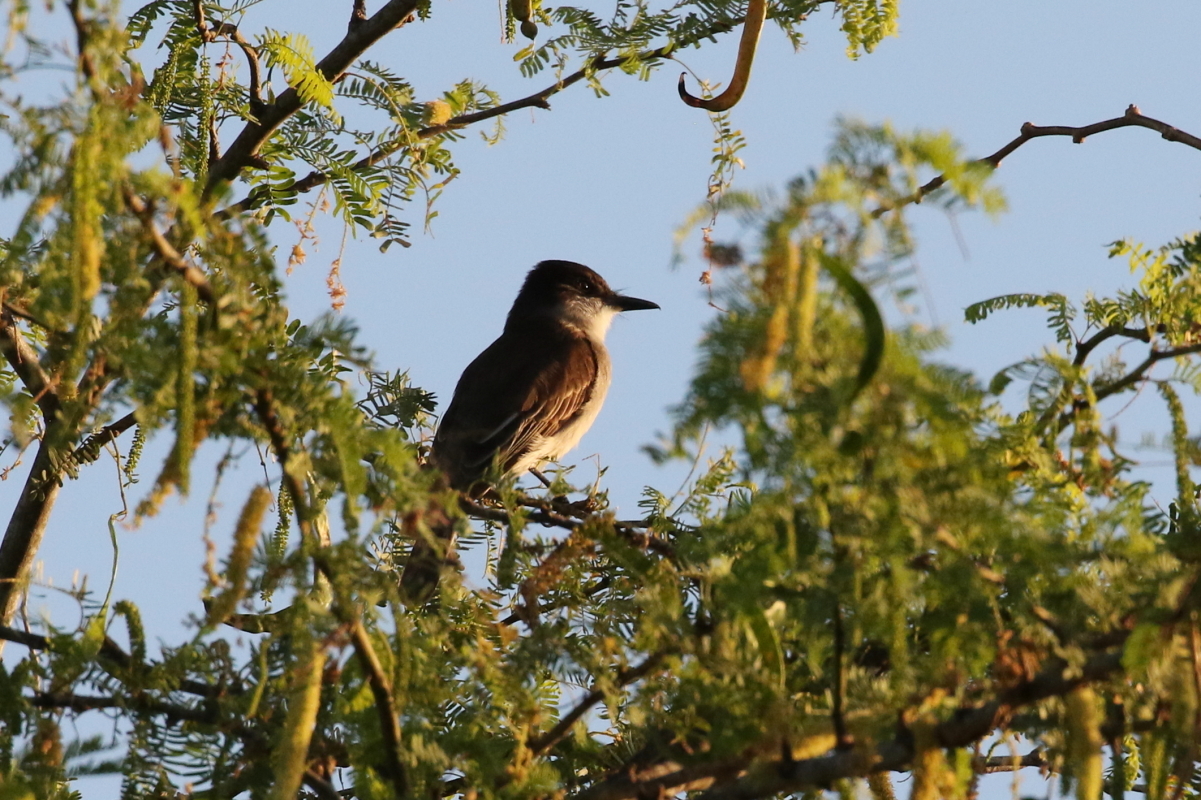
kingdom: Animalia
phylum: Chordata
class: Aves
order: Passeriformes
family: Tyrannidae
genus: Myiarchus
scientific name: Myiarchus antillarum
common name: Puerto rican flycatcher
